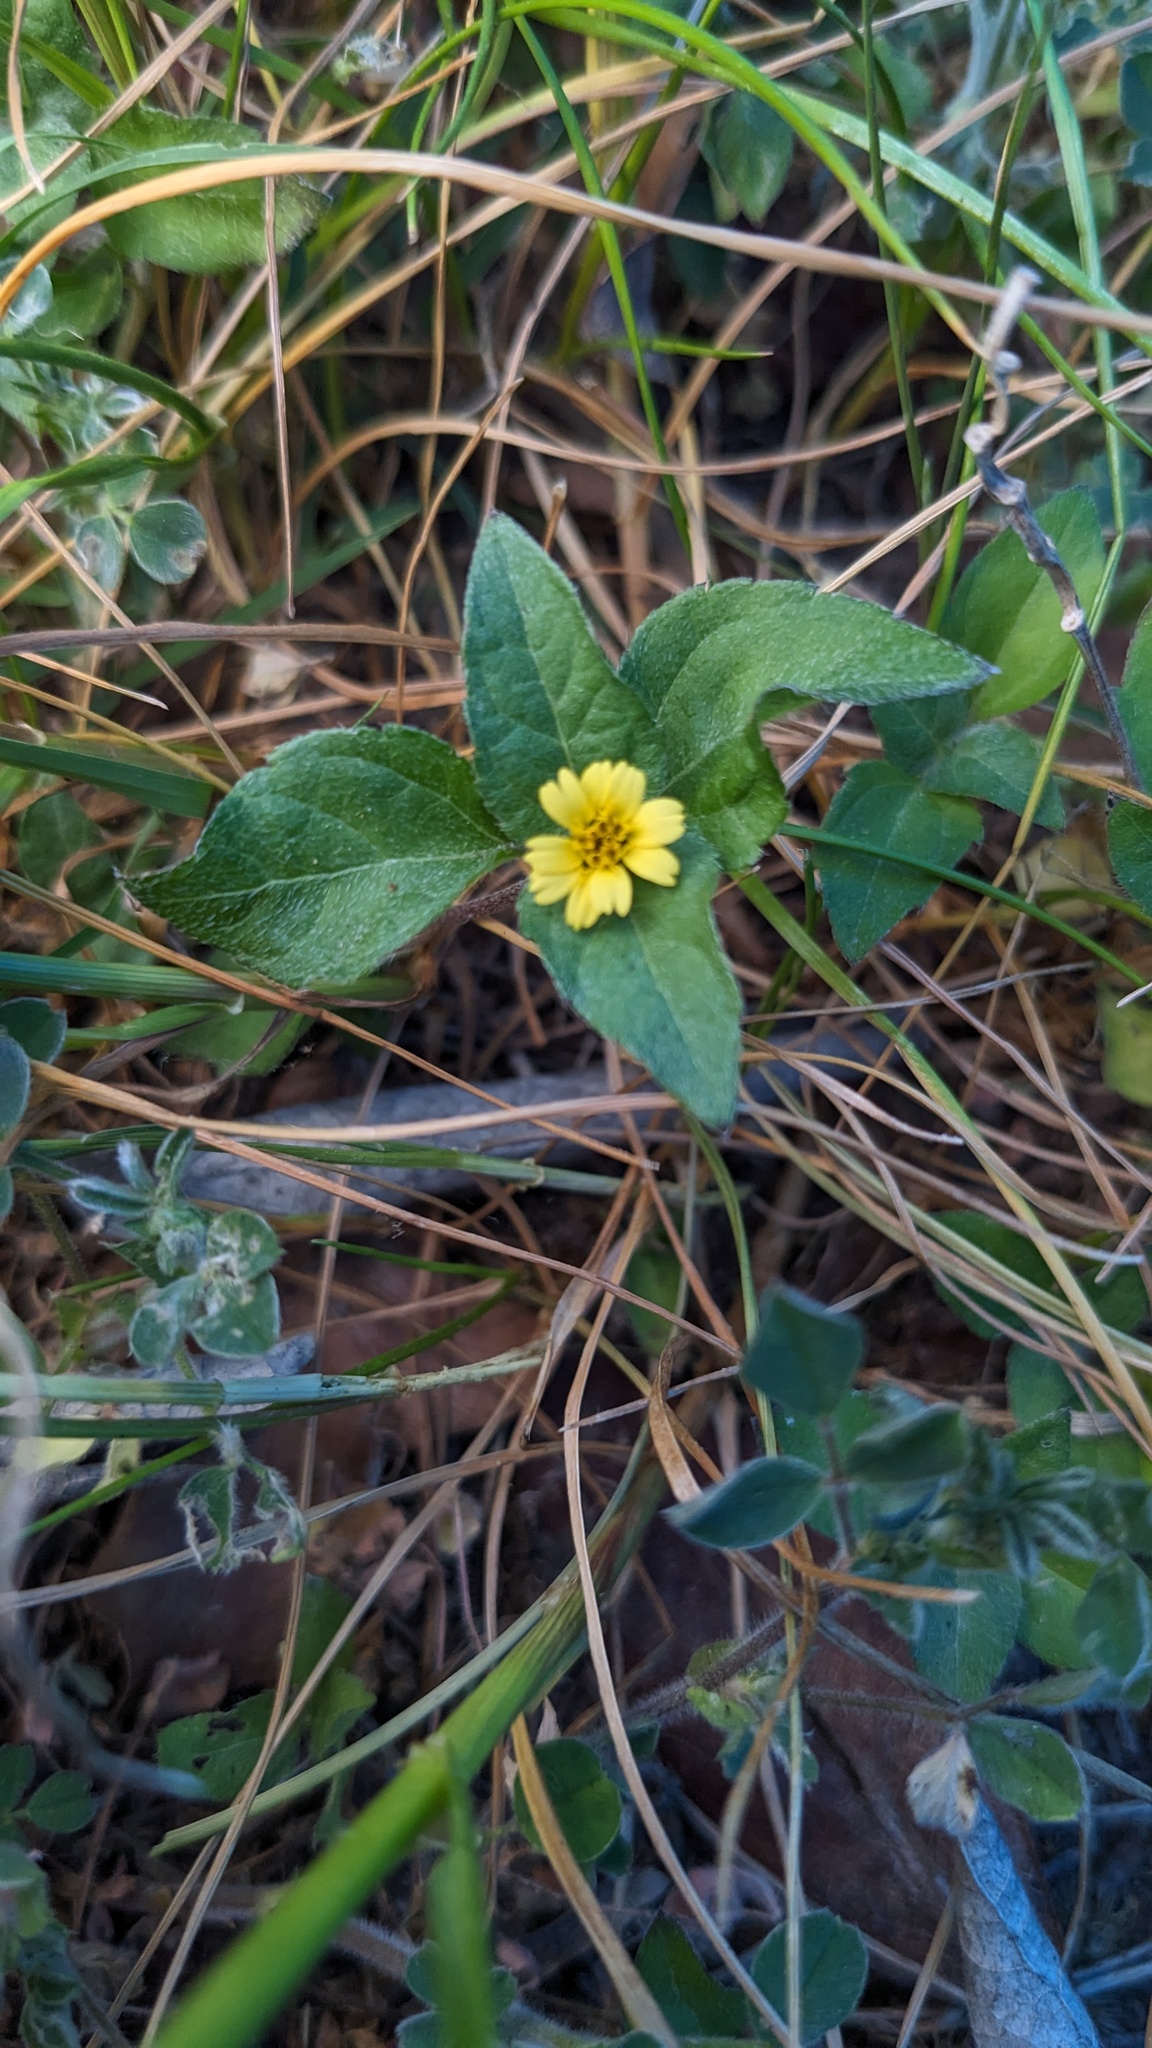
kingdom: Plantae
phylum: Tracheophyta
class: Magnoliopsida
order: Asterales
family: Asteraceae
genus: Calyptocarpus
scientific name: Calyptocarpus vialis
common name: Straggler daisy
